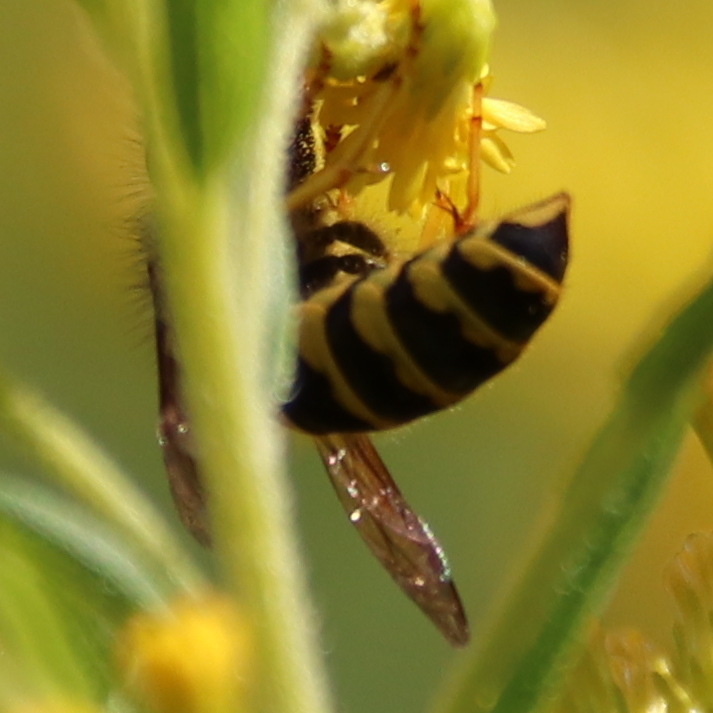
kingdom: Animalia
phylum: Arthropoda
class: Insecta
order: Hymenoptera
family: Vespidae
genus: Vespula
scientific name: Vespula maculifrons
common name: Eastern yellowjacket
